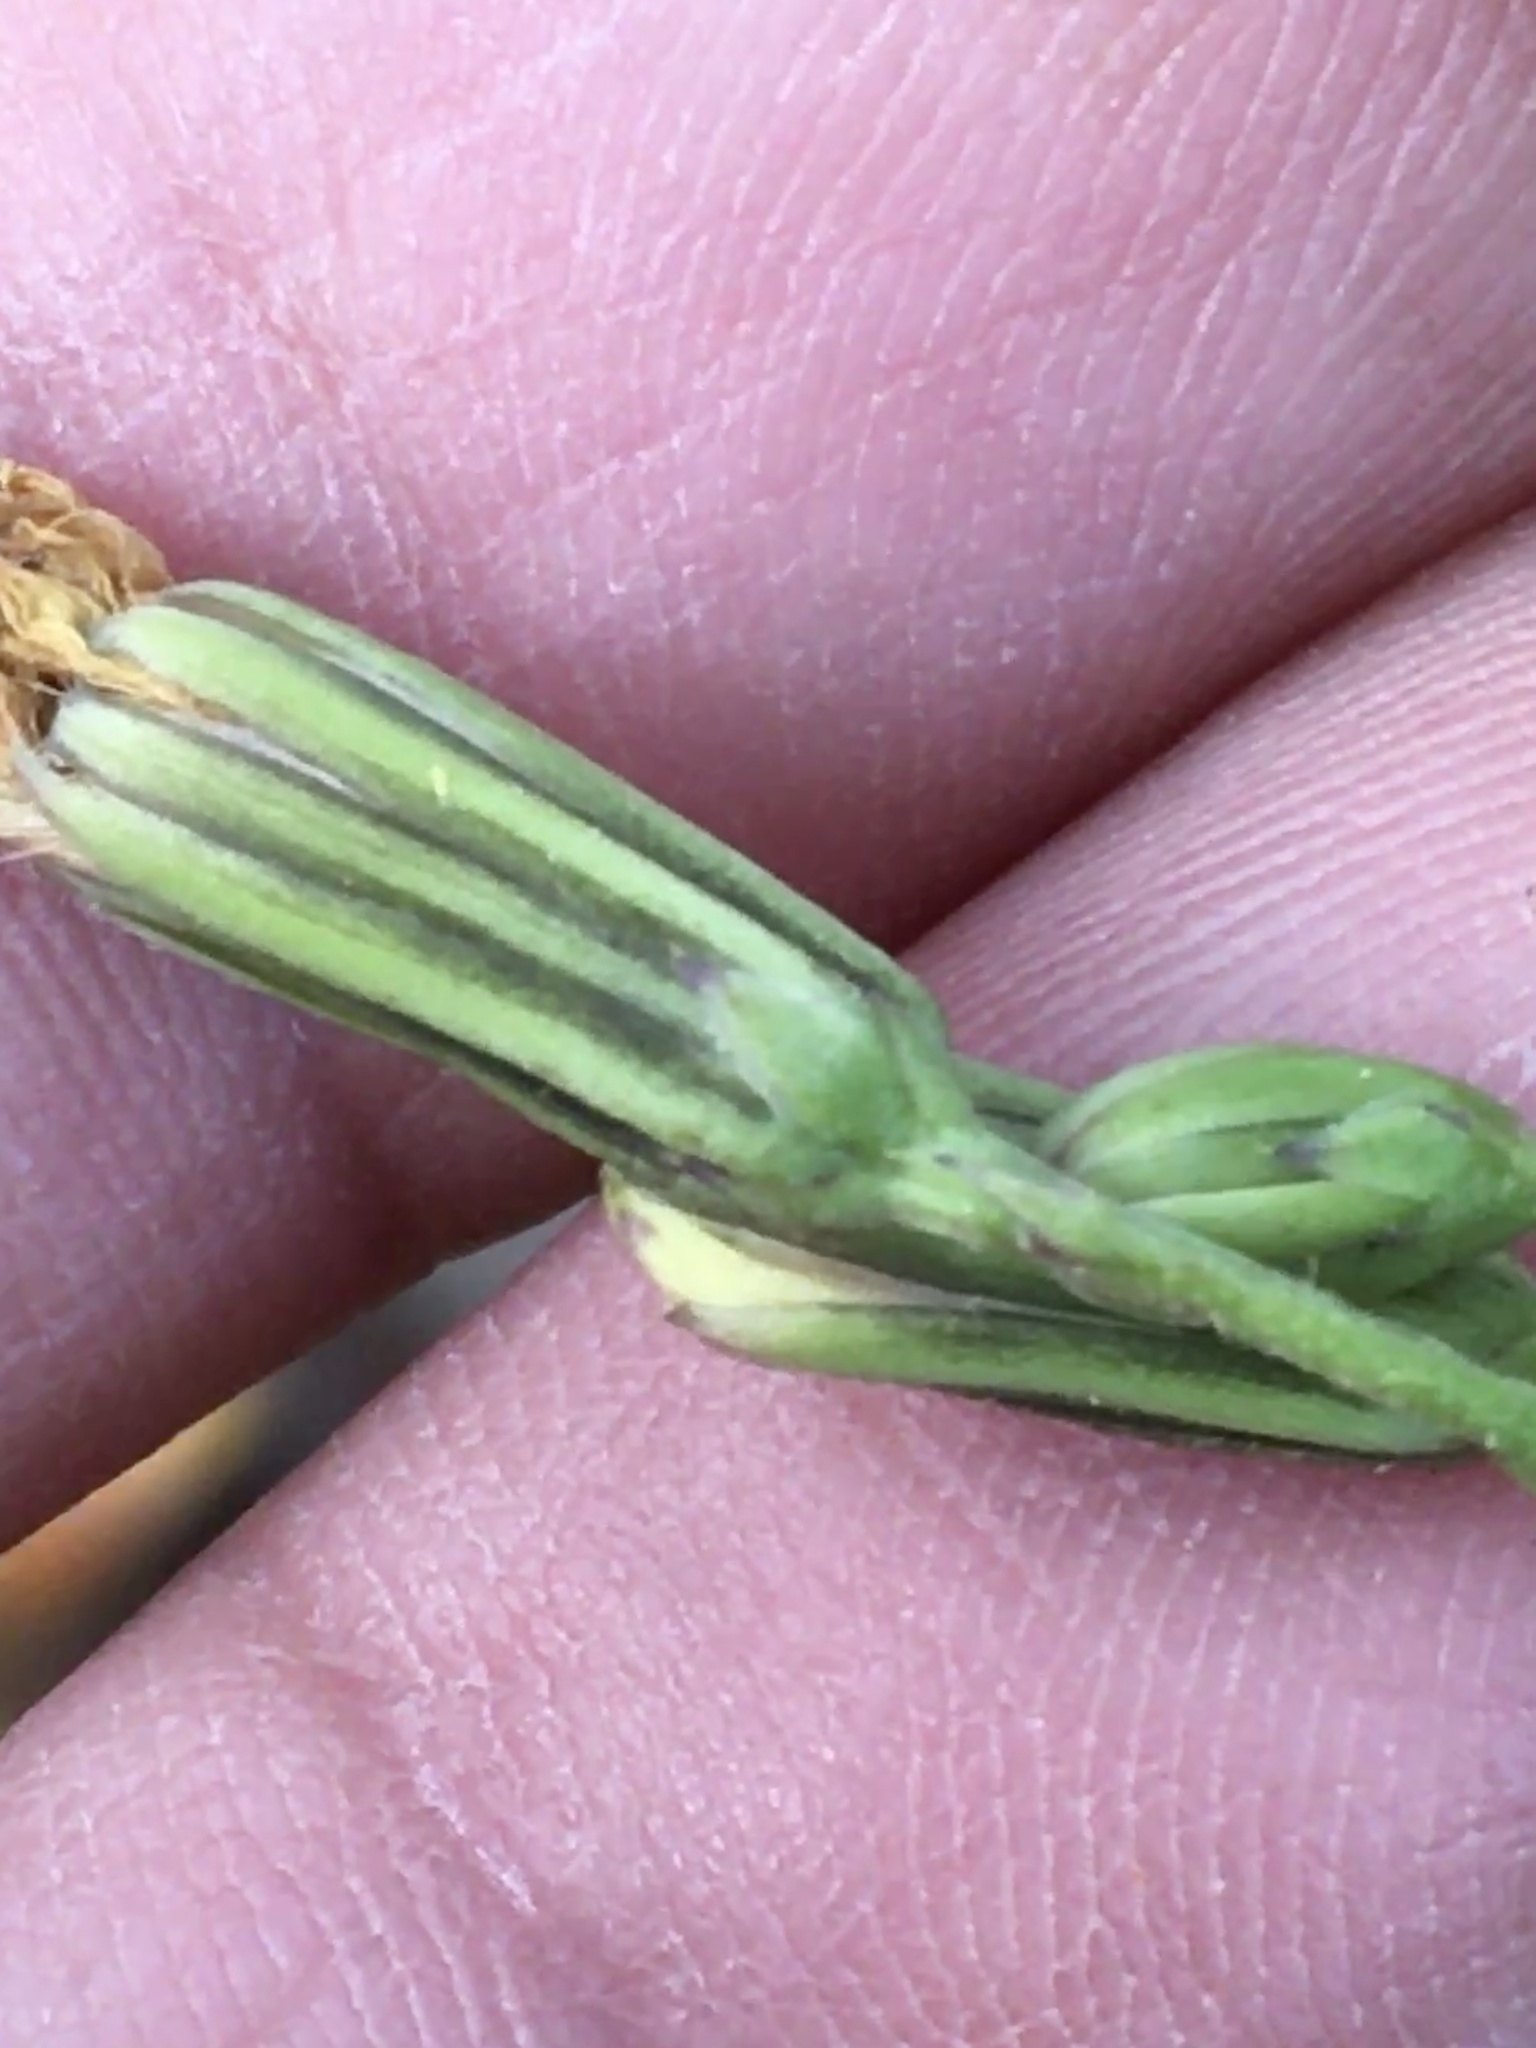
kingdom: Plantae
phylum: Tracheophyta
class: Magnoliopsida
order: Asterales
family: Asteraceae
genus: Nabalus
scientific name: Nabalus serpentarius
